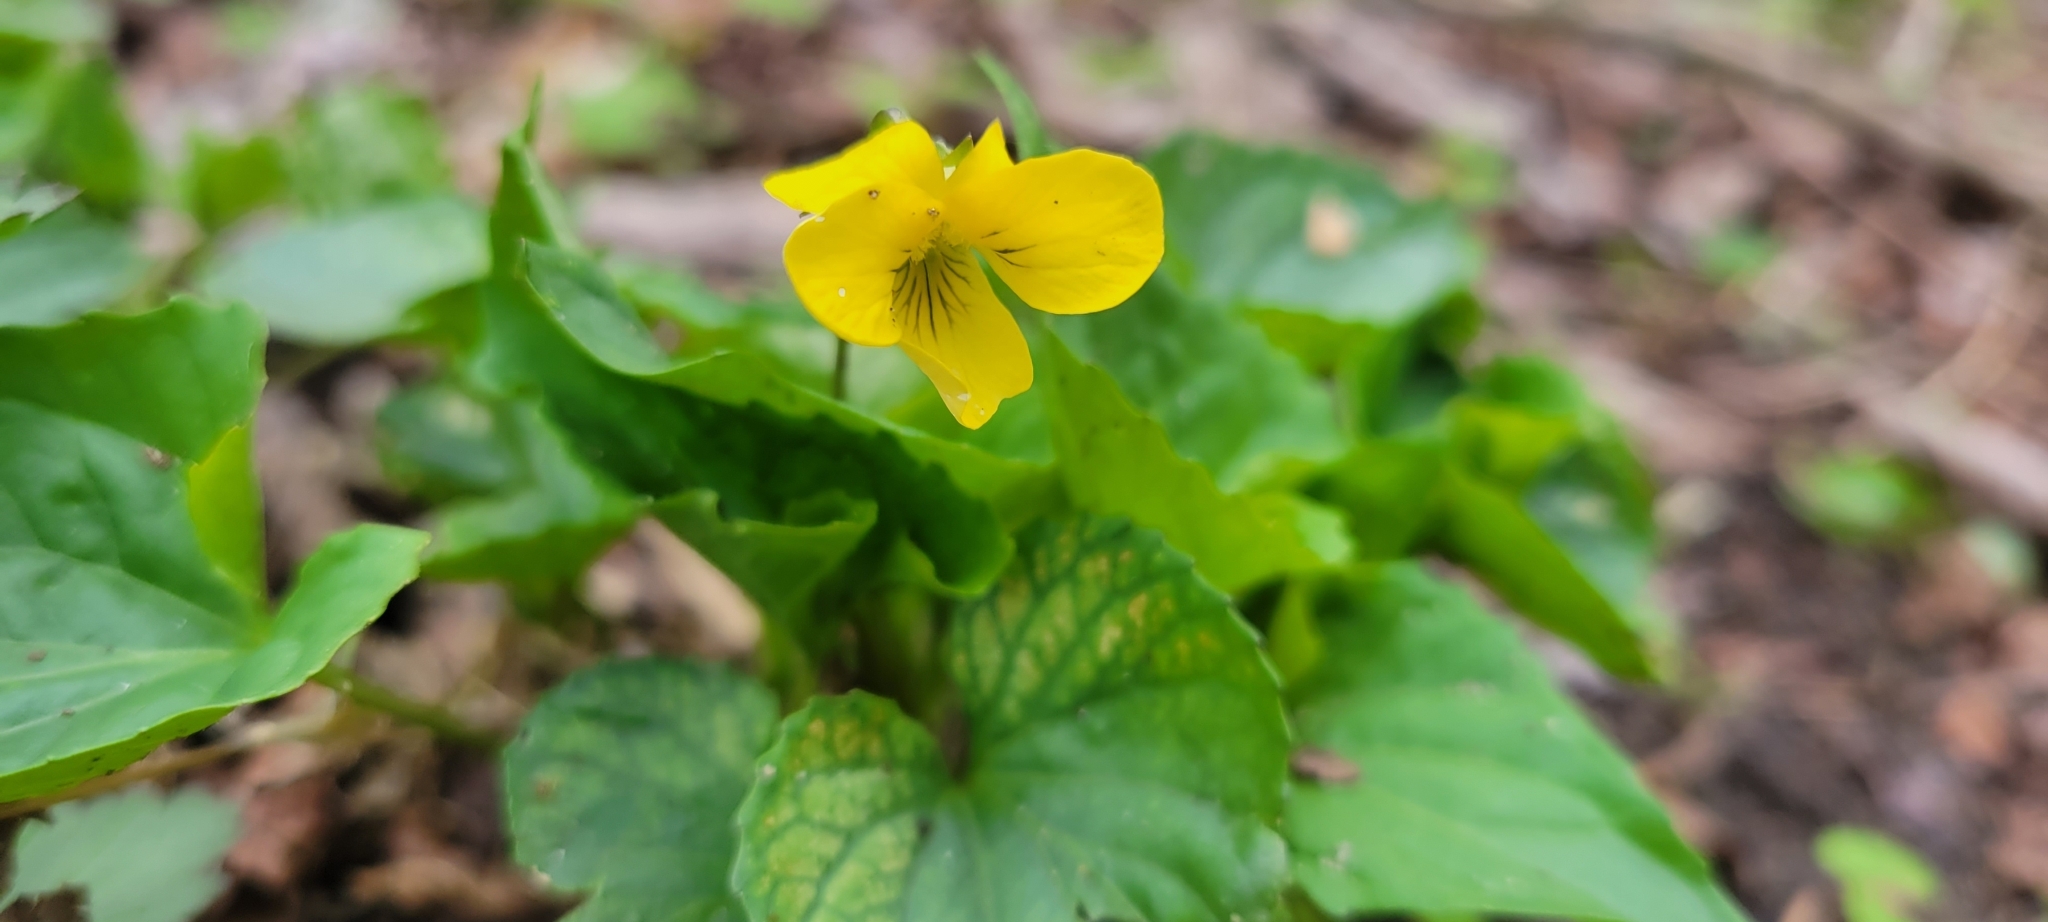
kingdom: Plantae
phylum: Tracheophyta
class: Magnoliopsida
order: Malpighiales
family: Violaceae
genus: Viola
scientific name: Viola eriocarpa
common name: Smooth yellow violet
